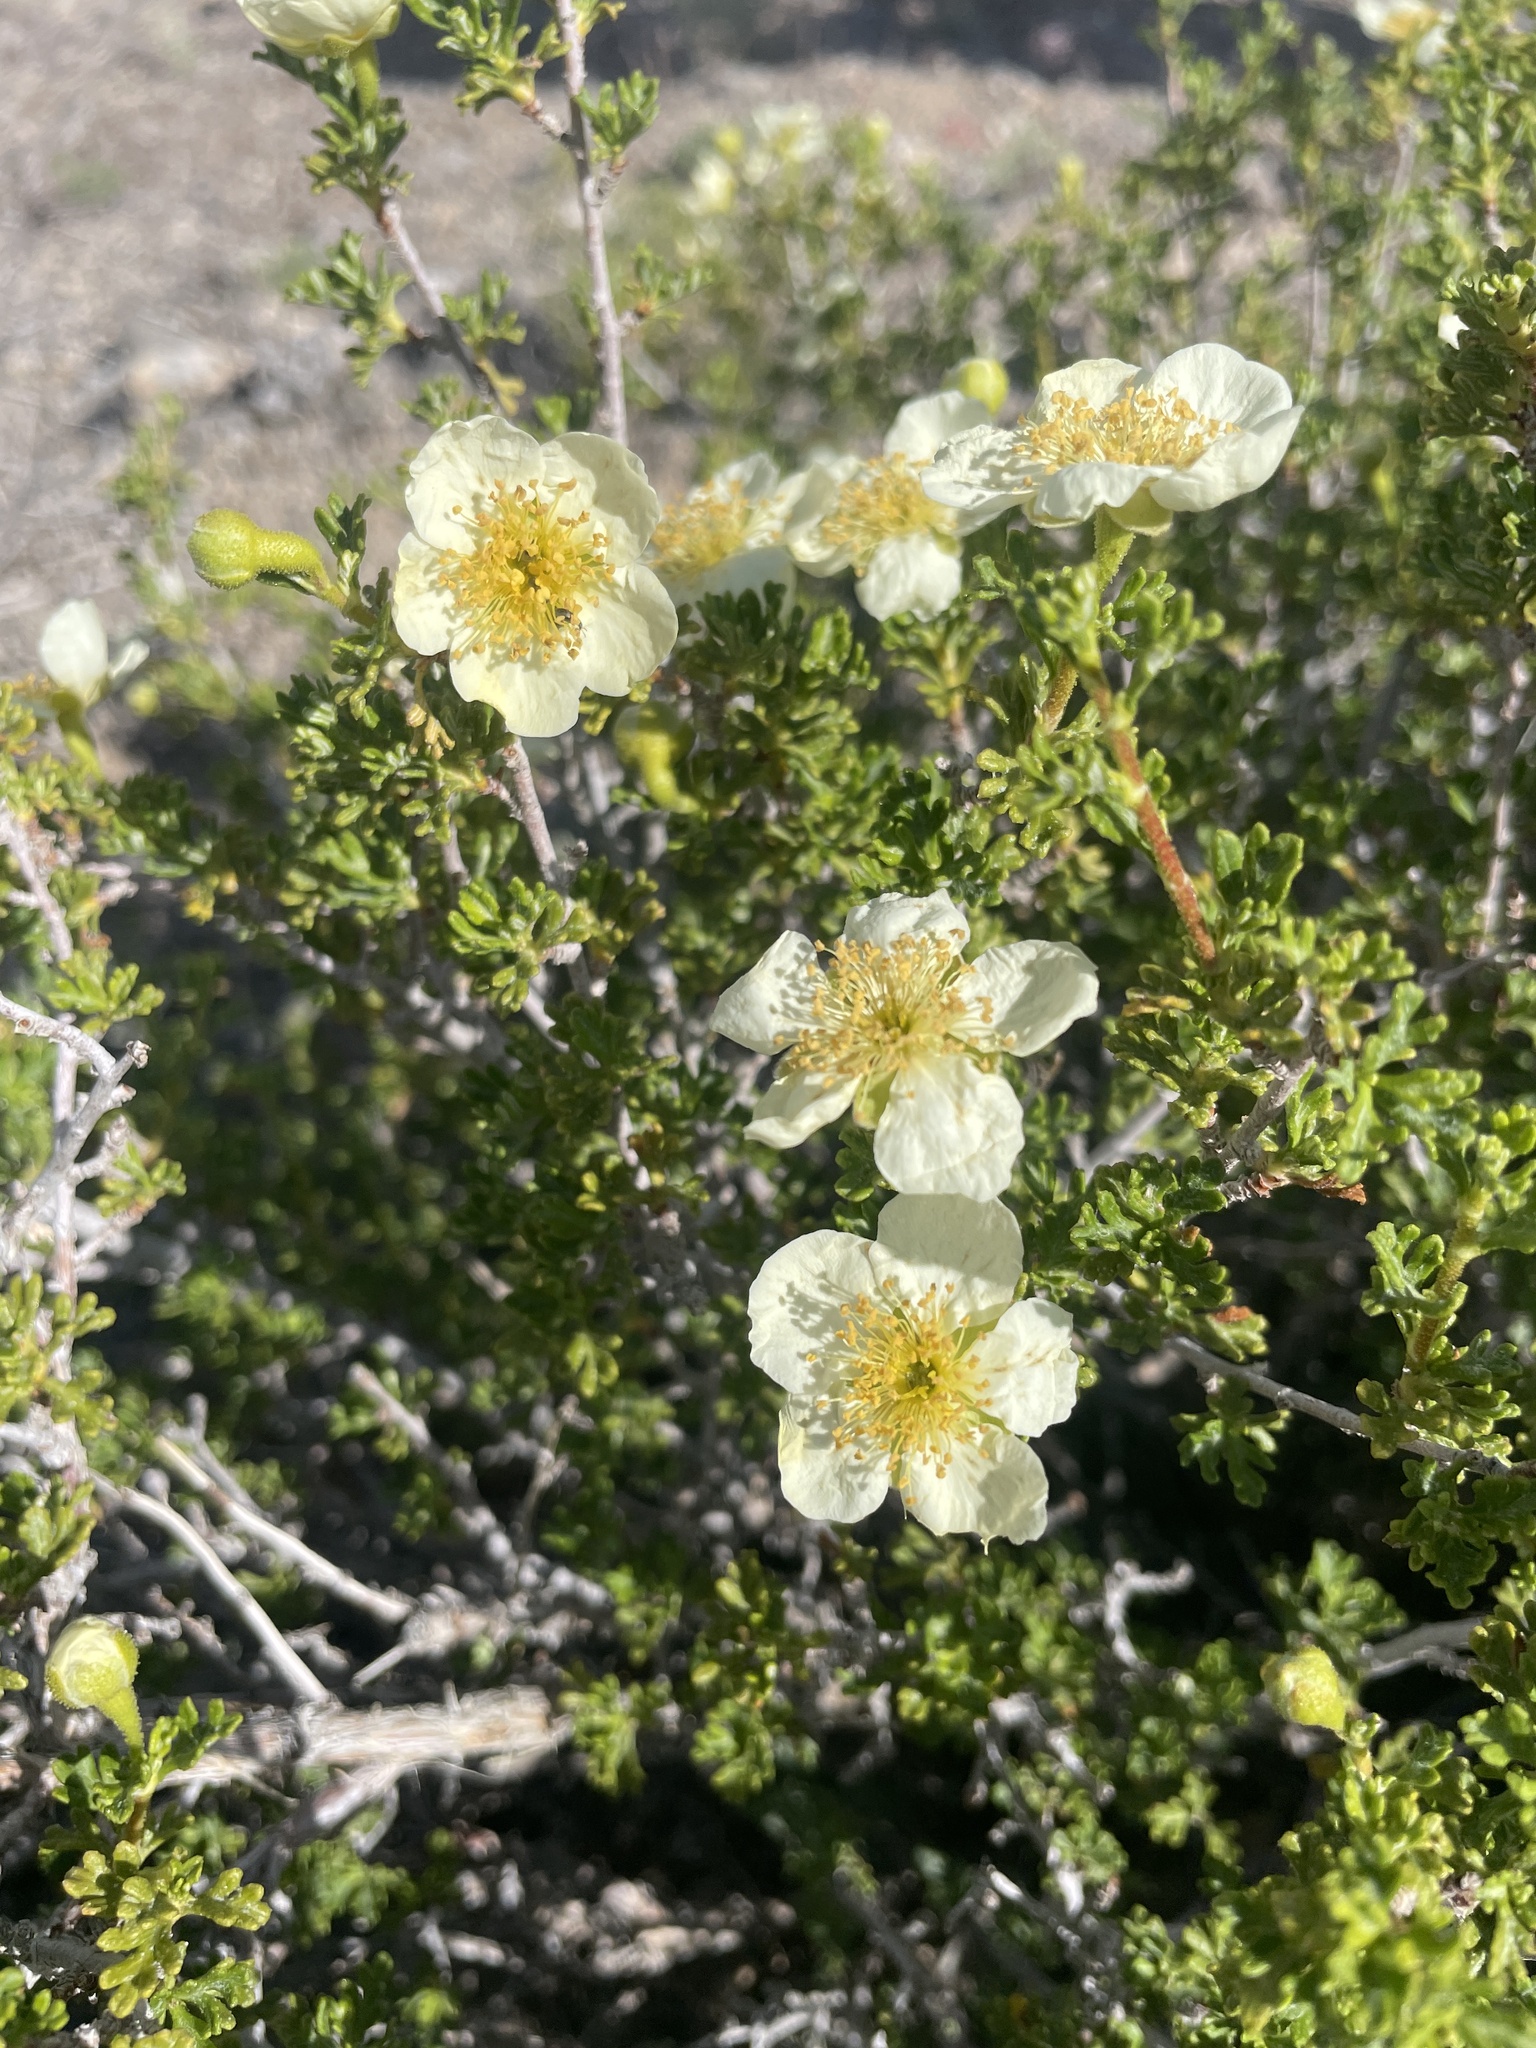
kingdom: Plantae
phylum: Tracheophyta
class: Magnoliopsida
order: Rosales
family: Rosaceae
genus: Purshia
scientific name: Purshia stansburiana
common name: Stansbury's cliffrose
